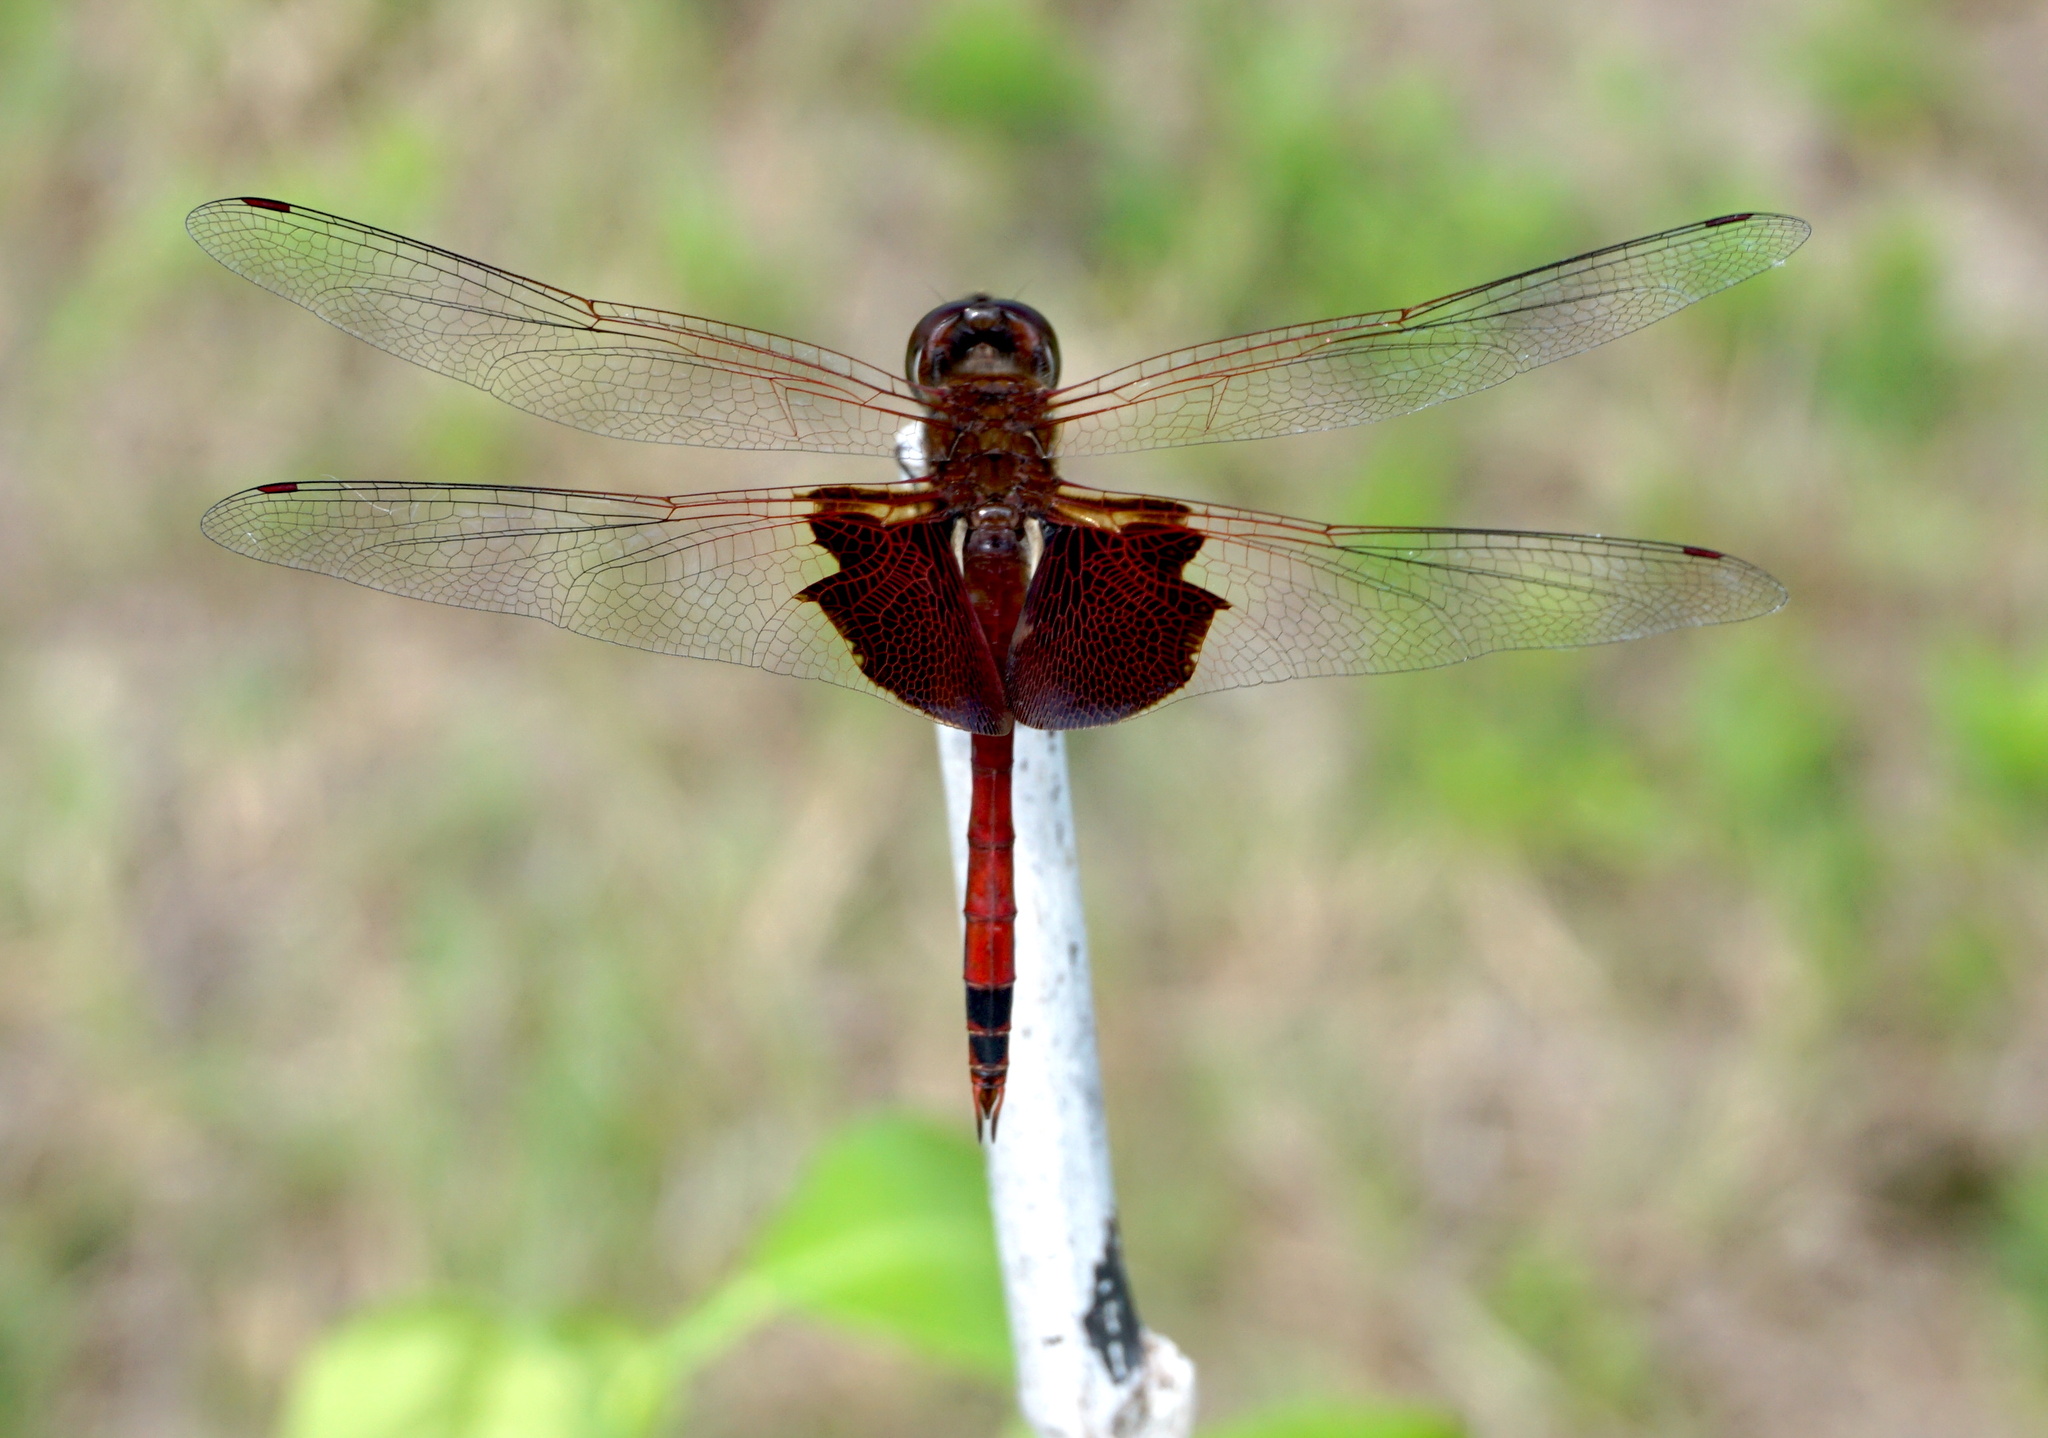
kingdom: Animalia
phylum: Arthropoda
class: Insecta
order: Odonata
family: Libellulidae
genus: Tramea
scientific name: Tramea carolina
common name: Carolina saddlebags
